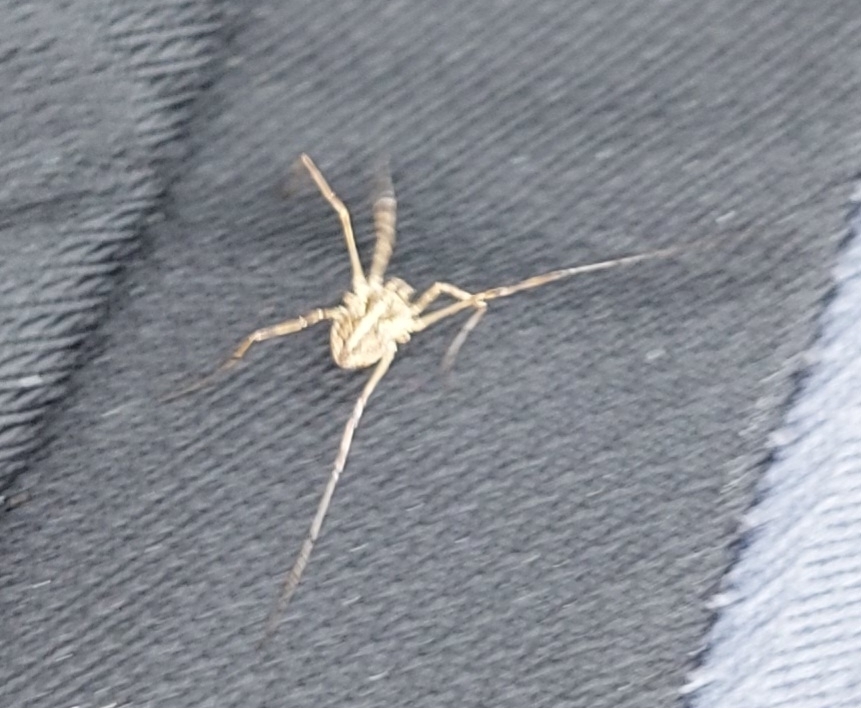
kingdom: Animalia
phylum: Arthropoda
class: Arachnida
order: Opiliones
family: Phalangiidae
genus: Mitopus
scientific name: Mitopus morio
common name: Saddleback harvestman
